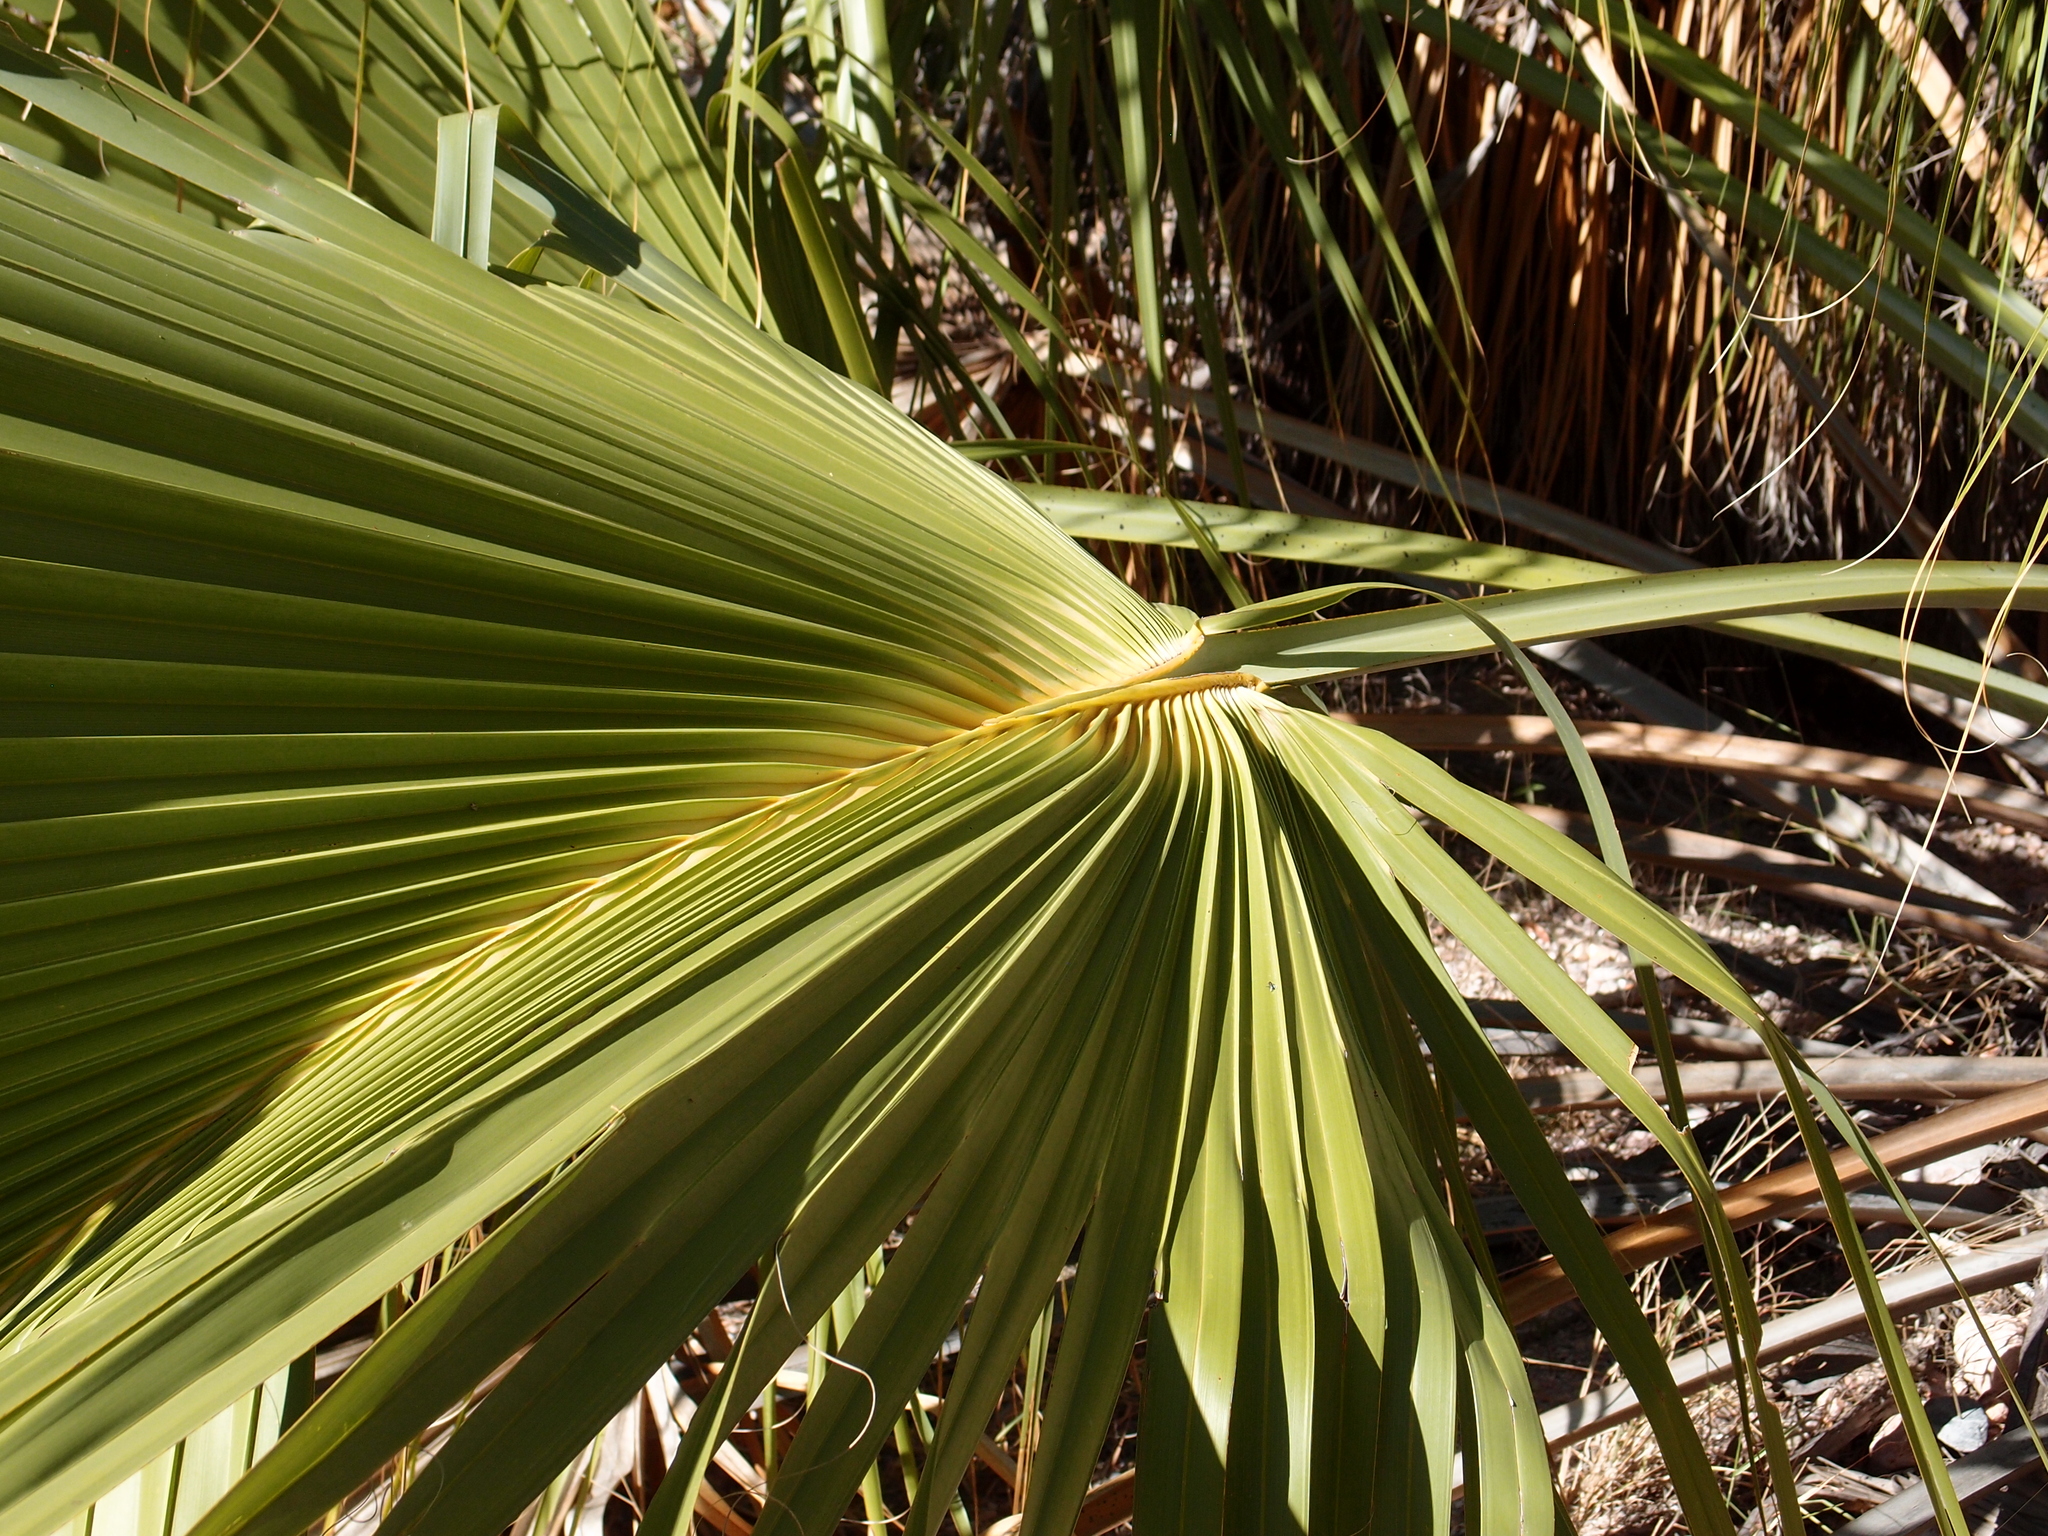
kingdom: Plantae
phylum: Tracheophyta
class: Liliopsida
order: Arecales
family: Arecaceae
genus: Sabal
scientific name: Sabal uresana
